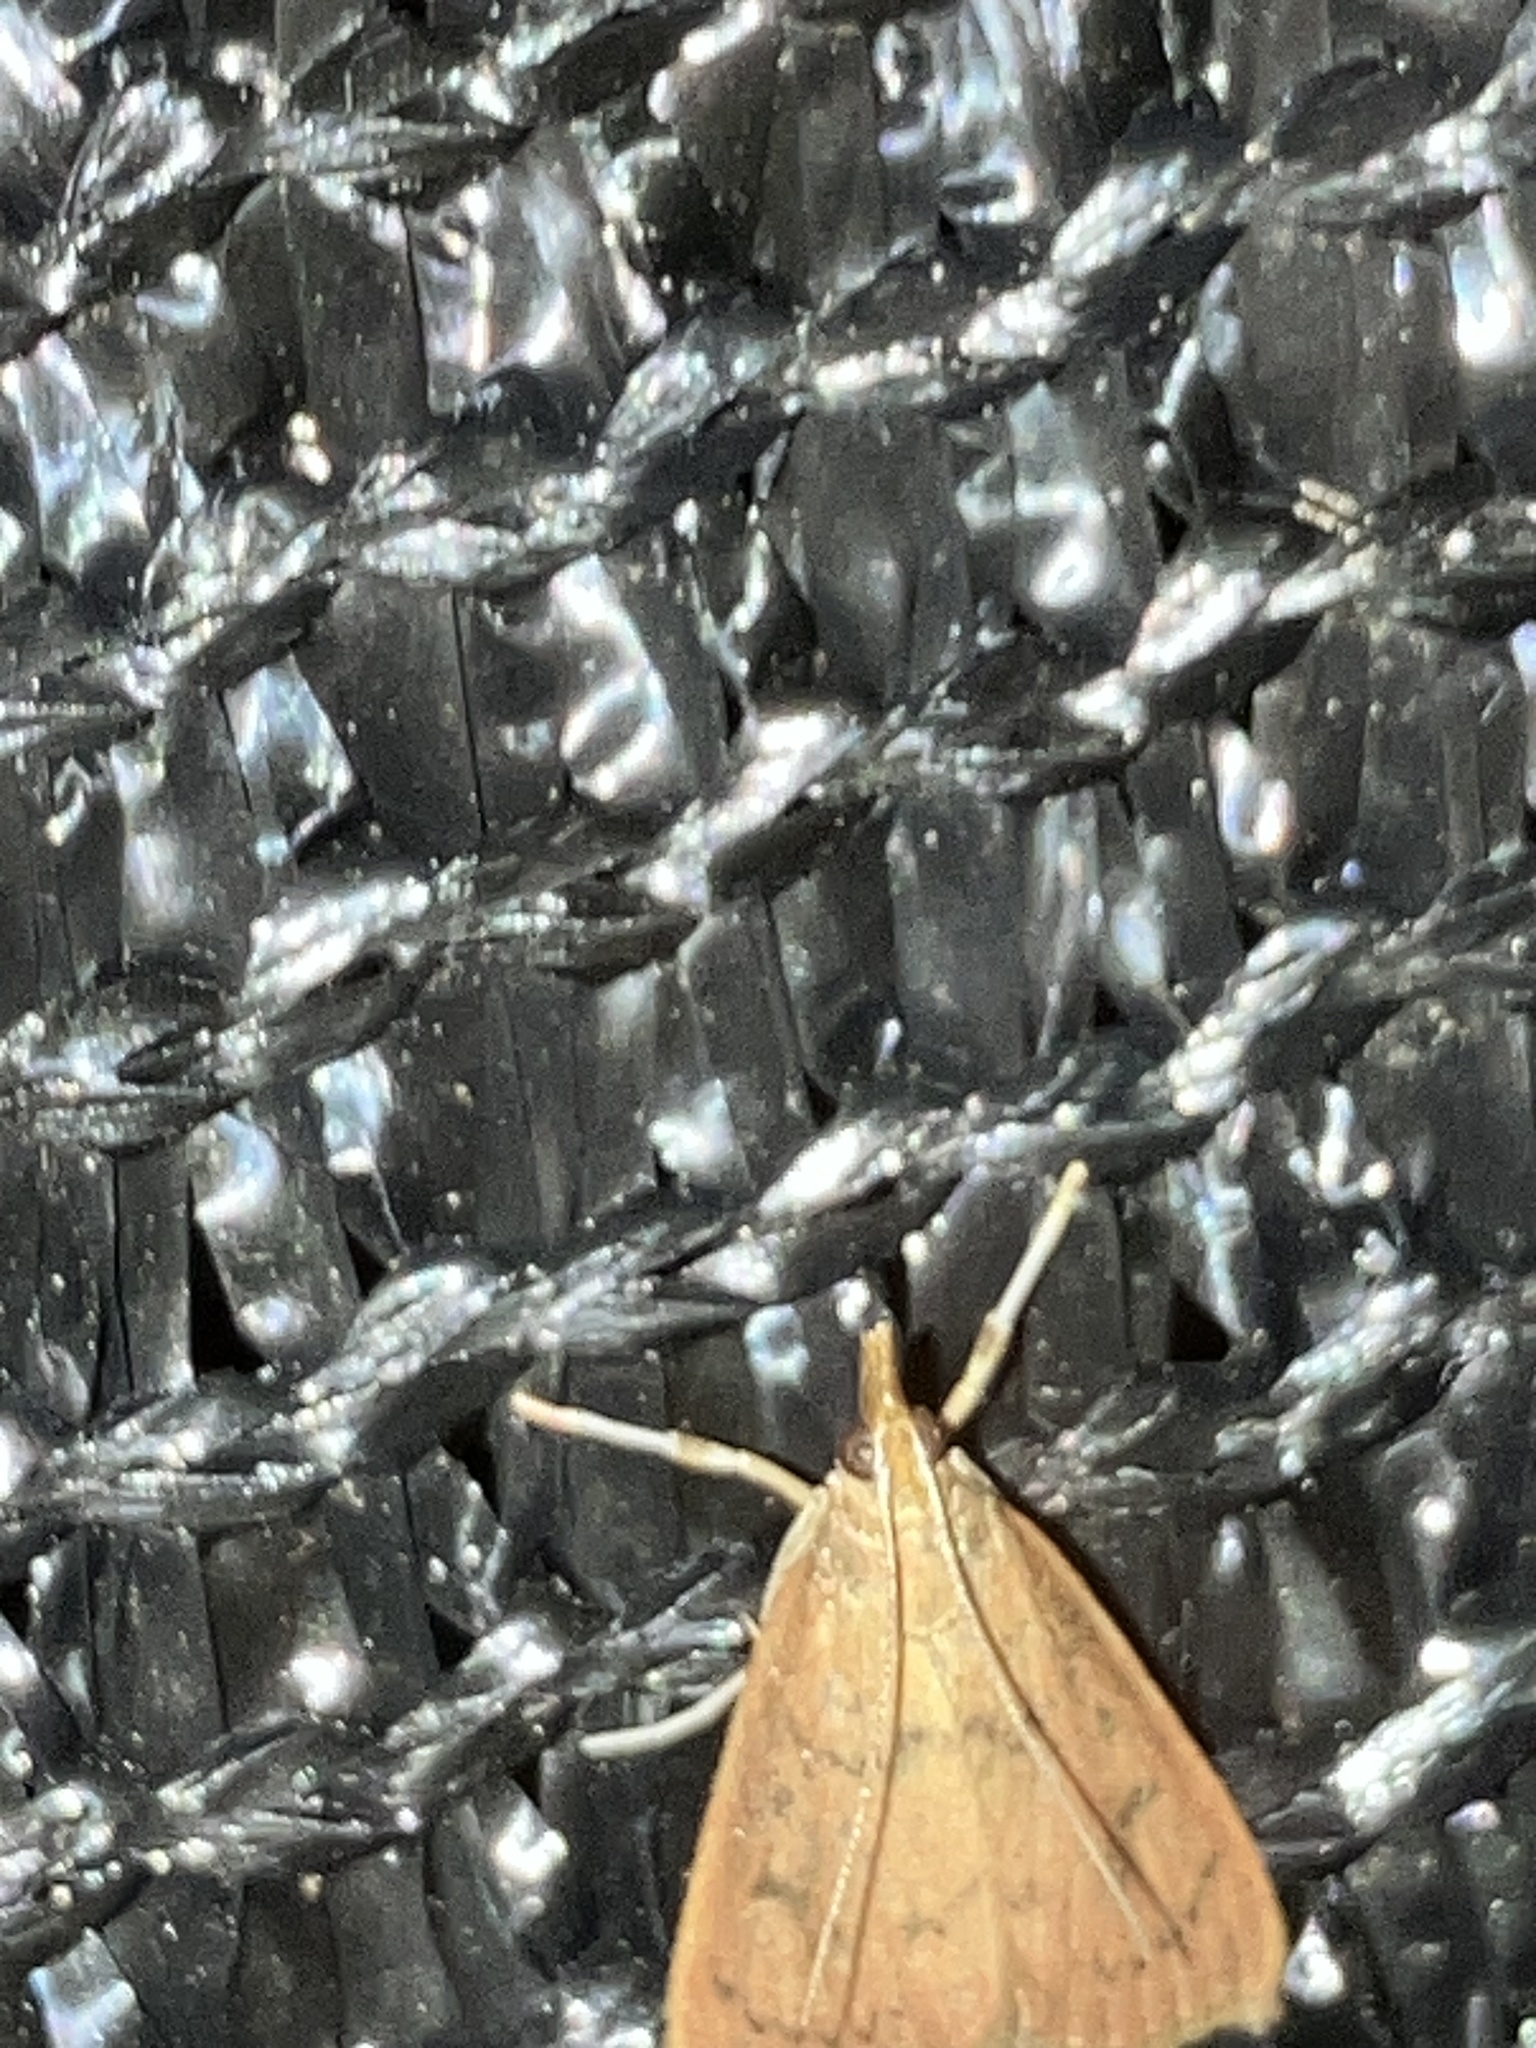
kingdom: Animalia
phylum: Arthropoda
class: Insecta
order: Lepidoptera
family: Crambidae
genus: Oenobotys
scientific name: Oenobotys vinotinctalis
